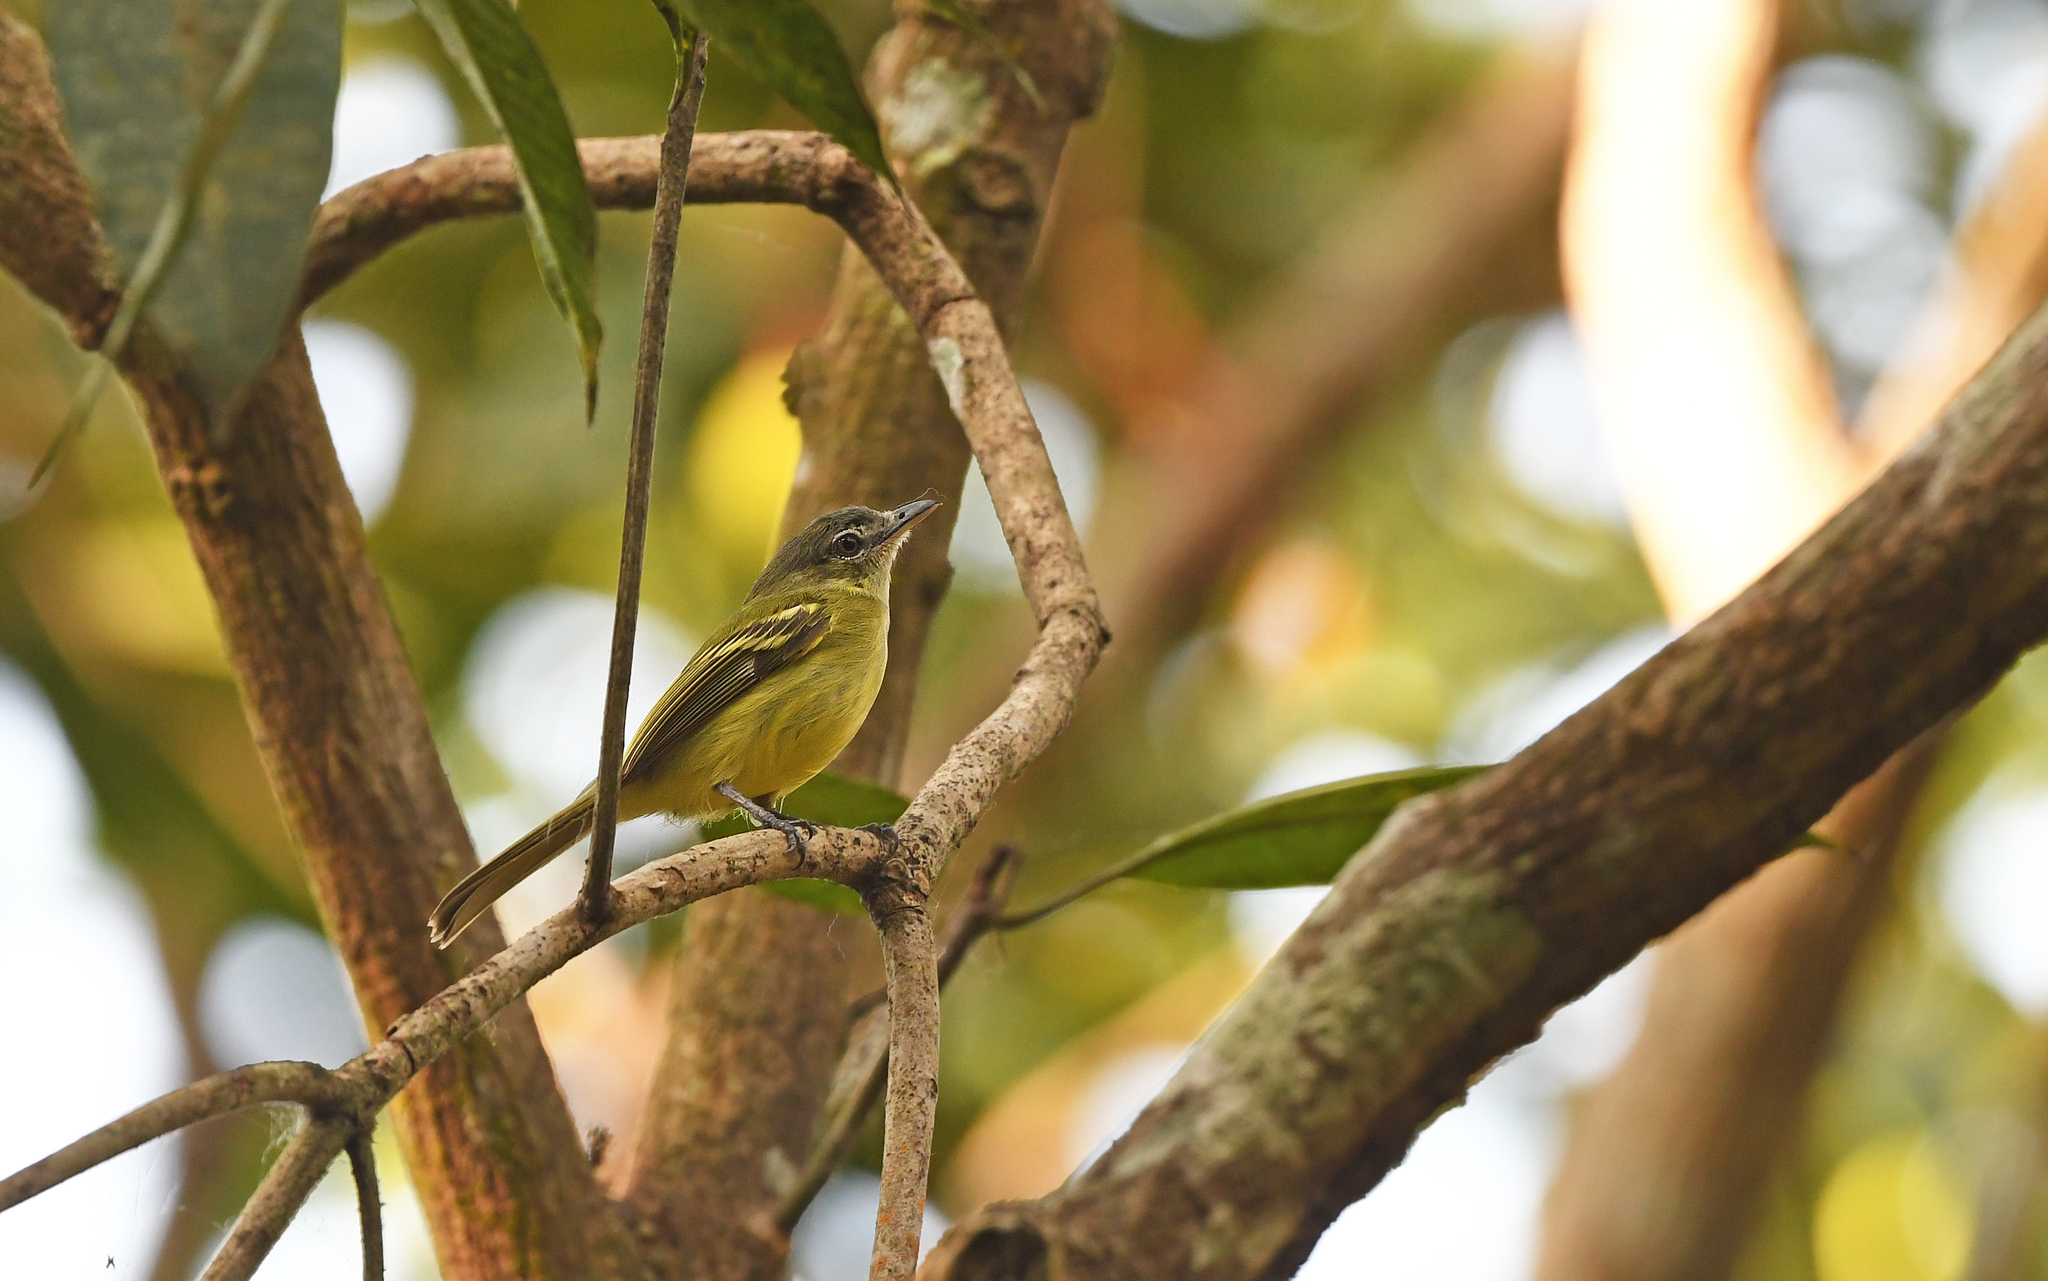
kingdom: Animalia
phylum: Chordata
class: Aves
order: Passeriformes
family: Tyrannidae
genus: Tolmomyias
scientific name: Tolmomyias sulphurescens
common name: Yellow-olive flycatcher
